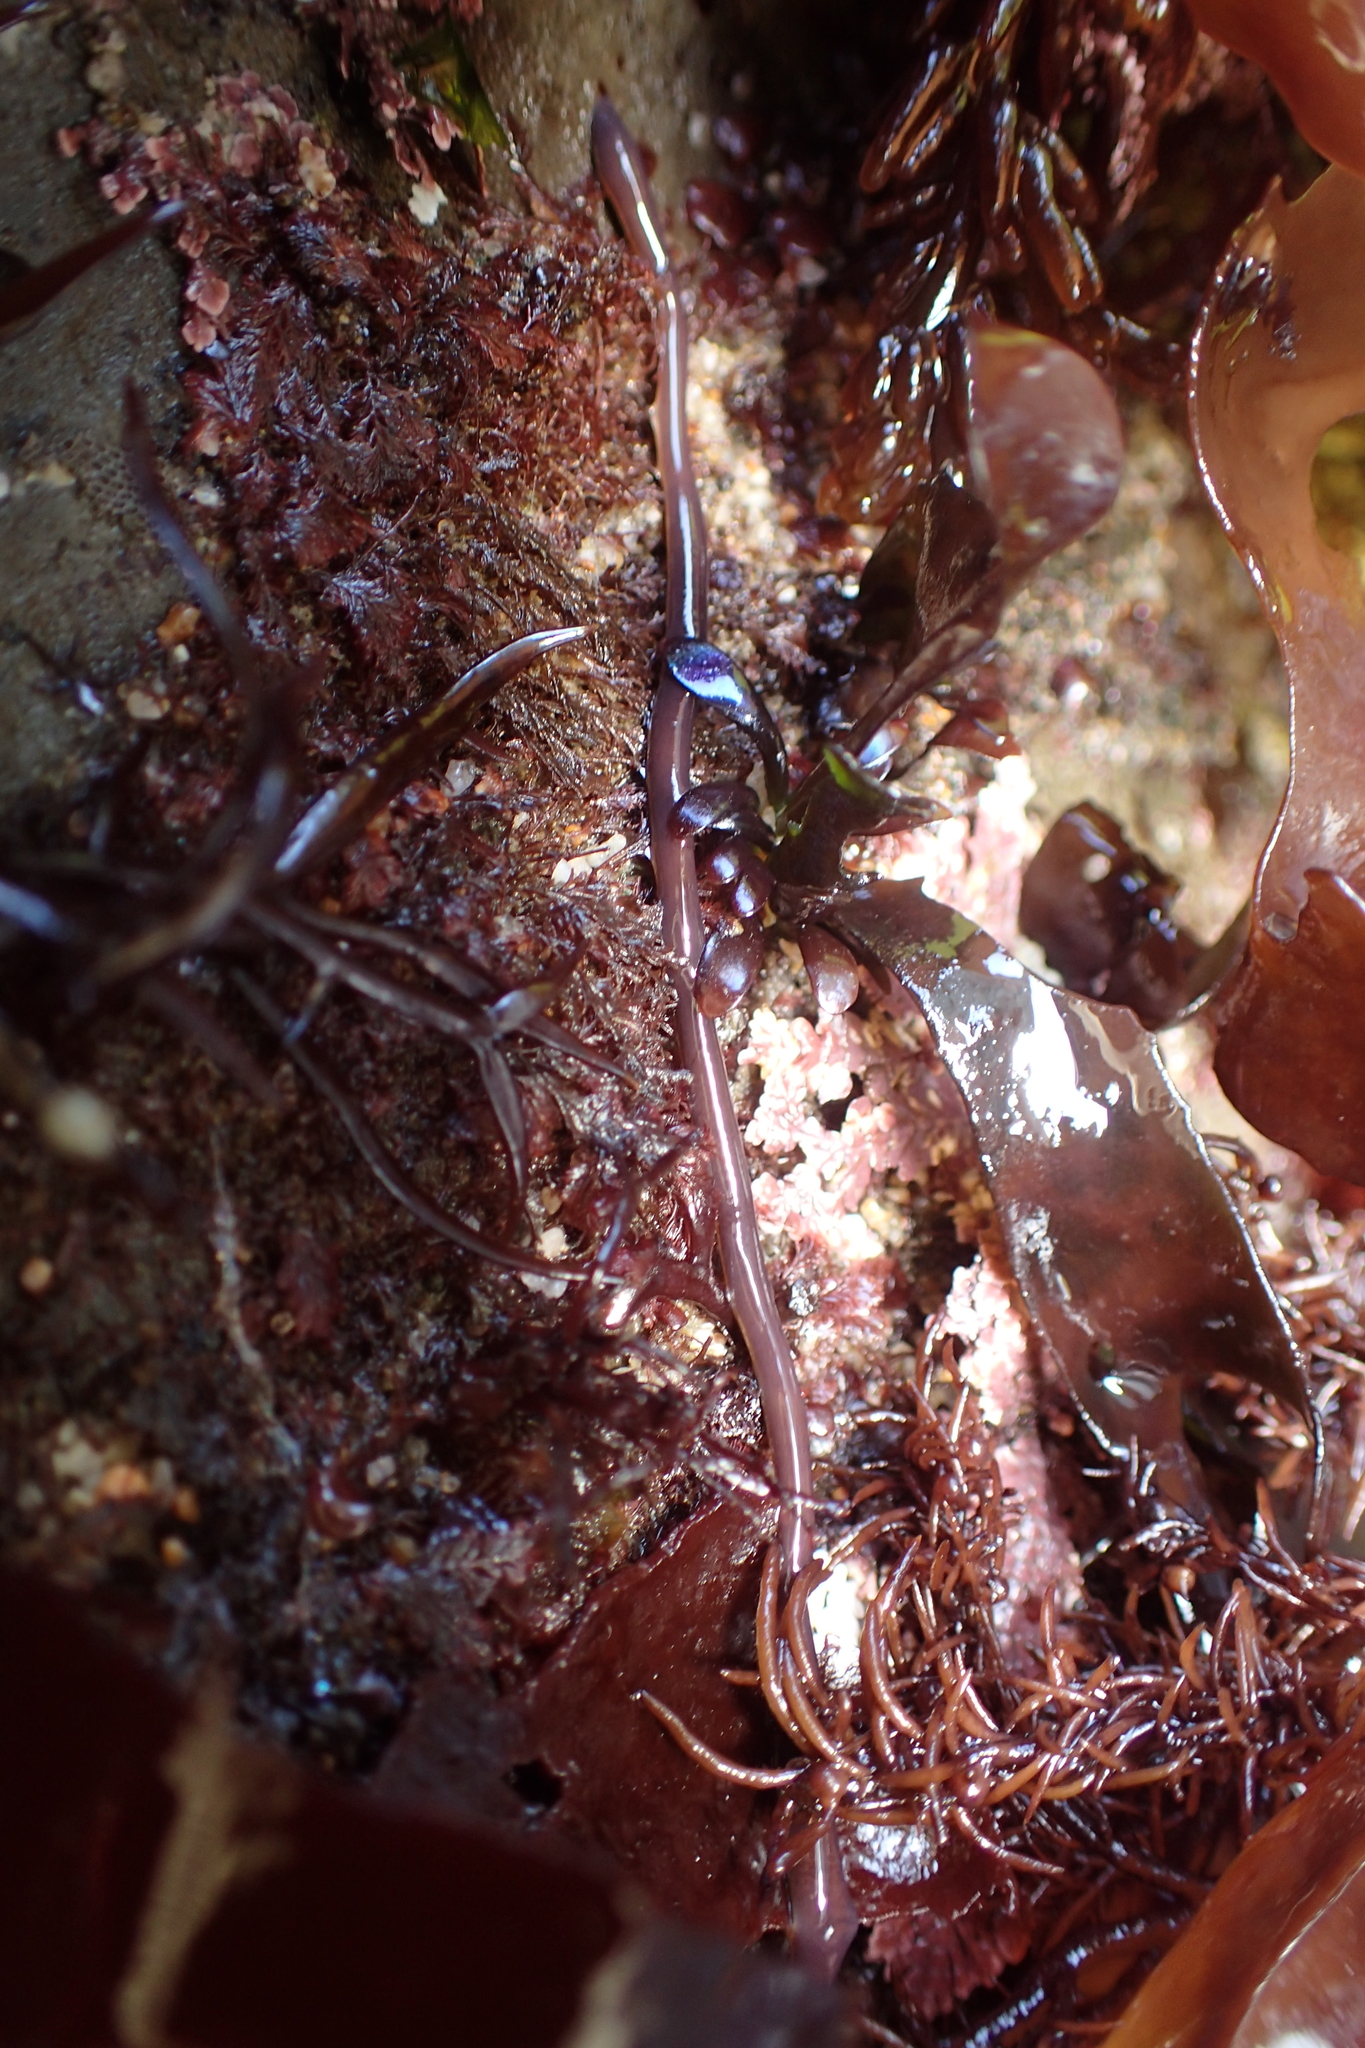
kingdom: Animalia
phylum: Nemertea
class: Hoplonemertea
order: Monostilifera
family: Neesiidae
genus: Paranemertes
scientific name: Paranemertes peregrina
